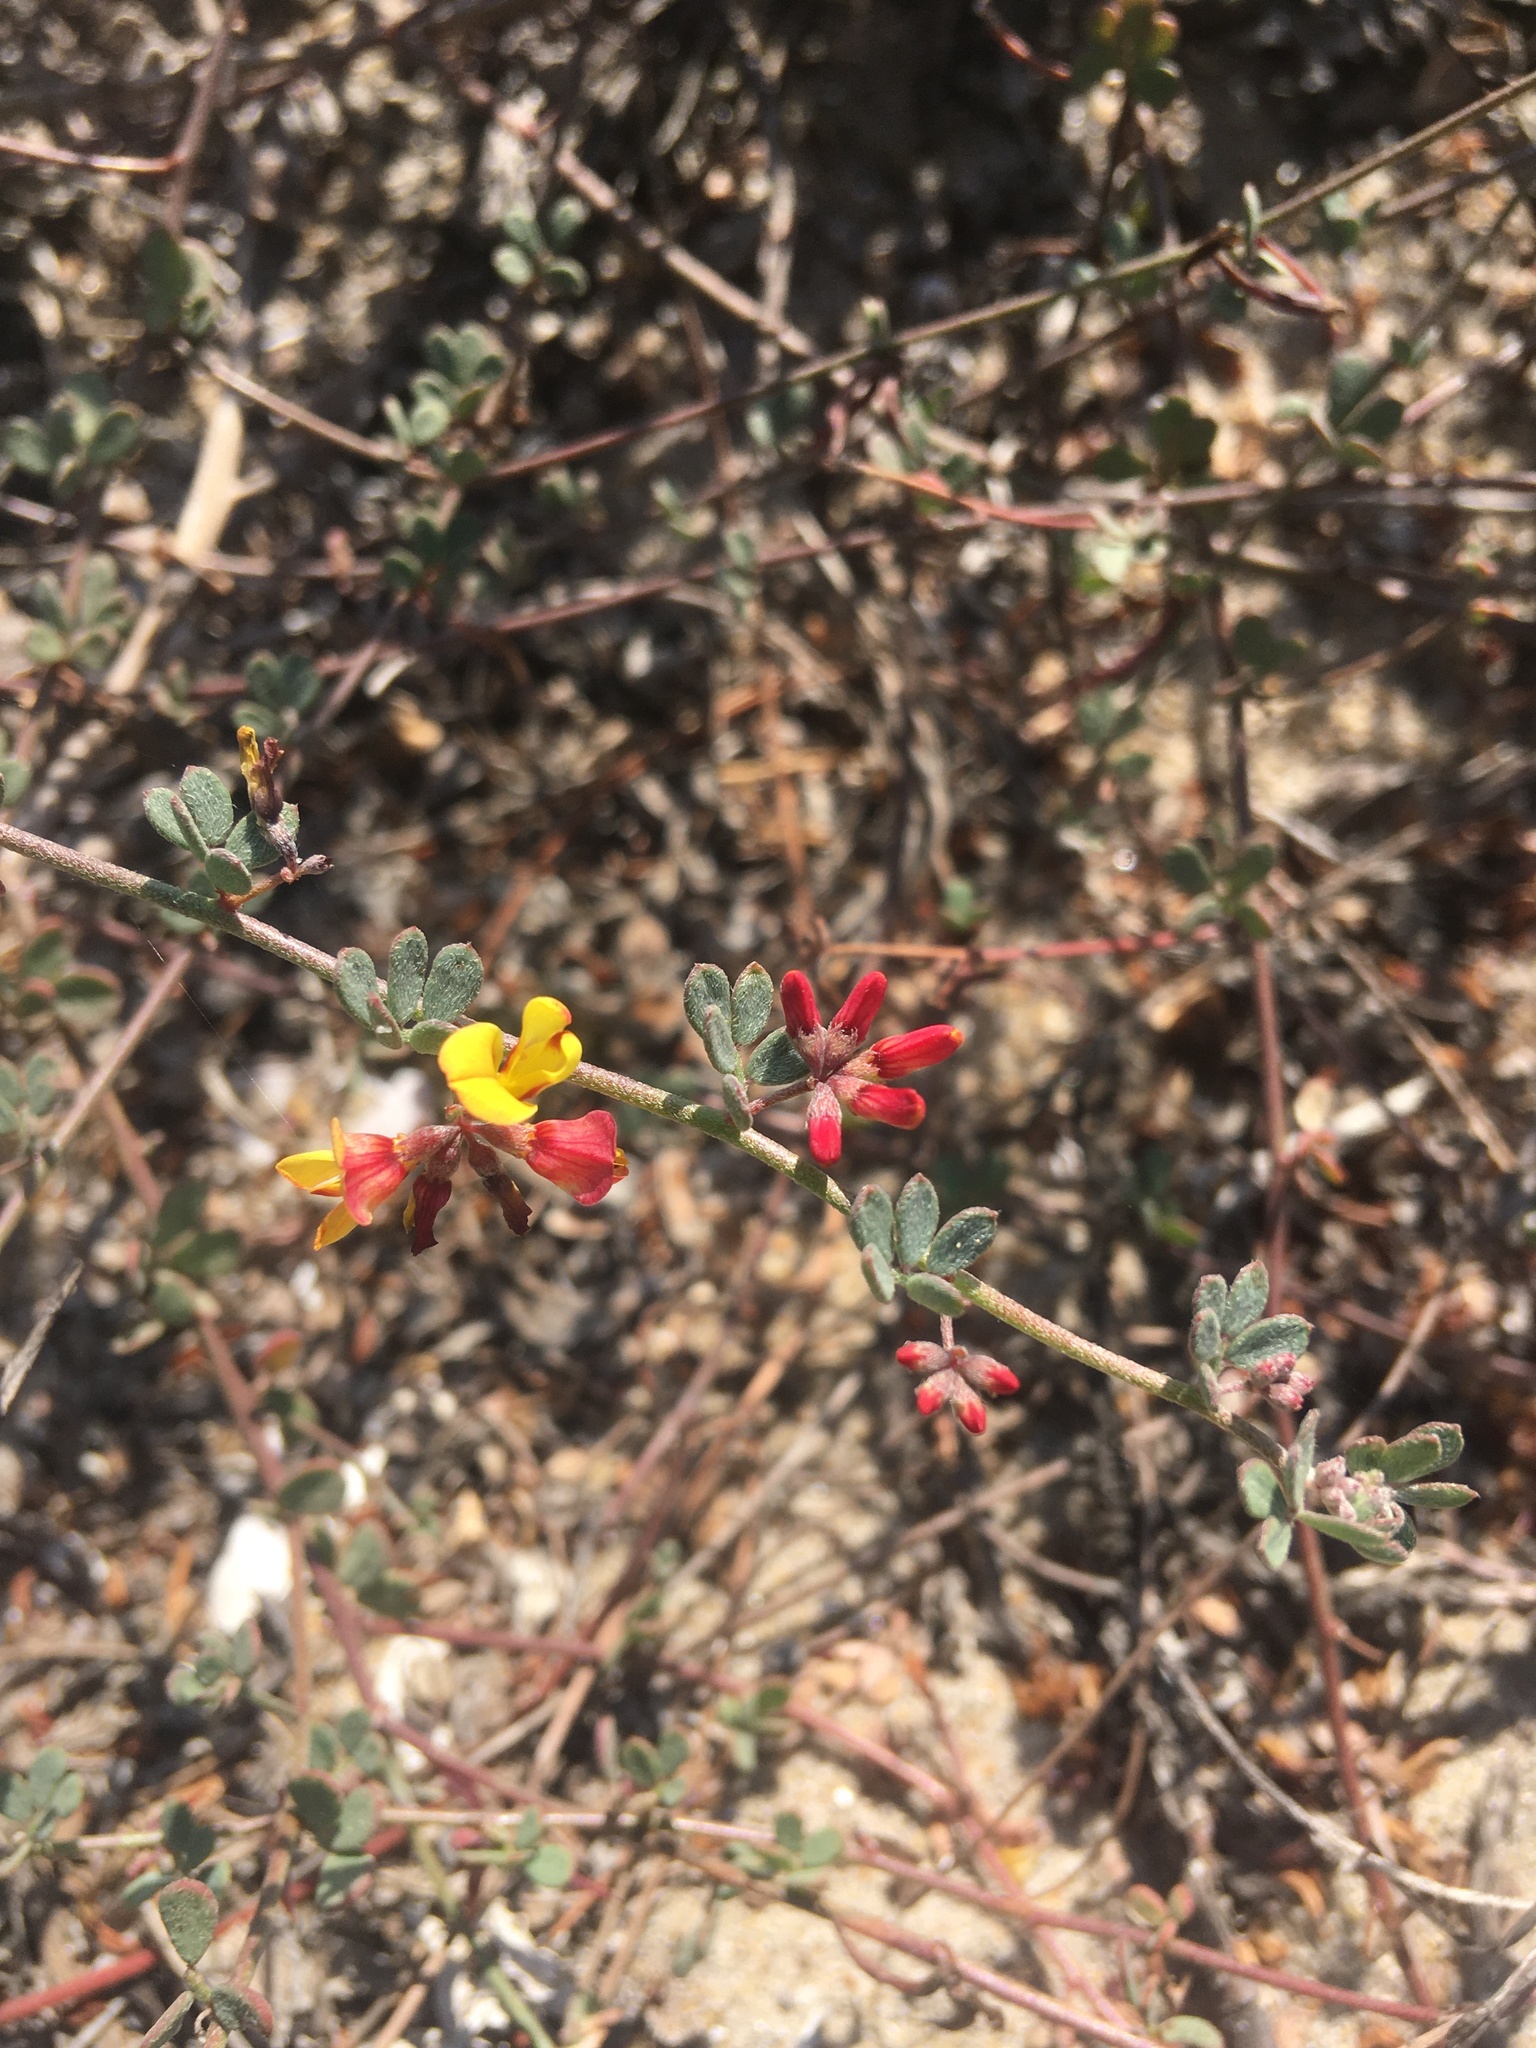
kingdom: Plantae
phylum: Tracheophyta
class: Magnoliopsida
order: Fabales
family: Fabaceae
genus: Acmispon
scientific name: Acmispon prostratus
